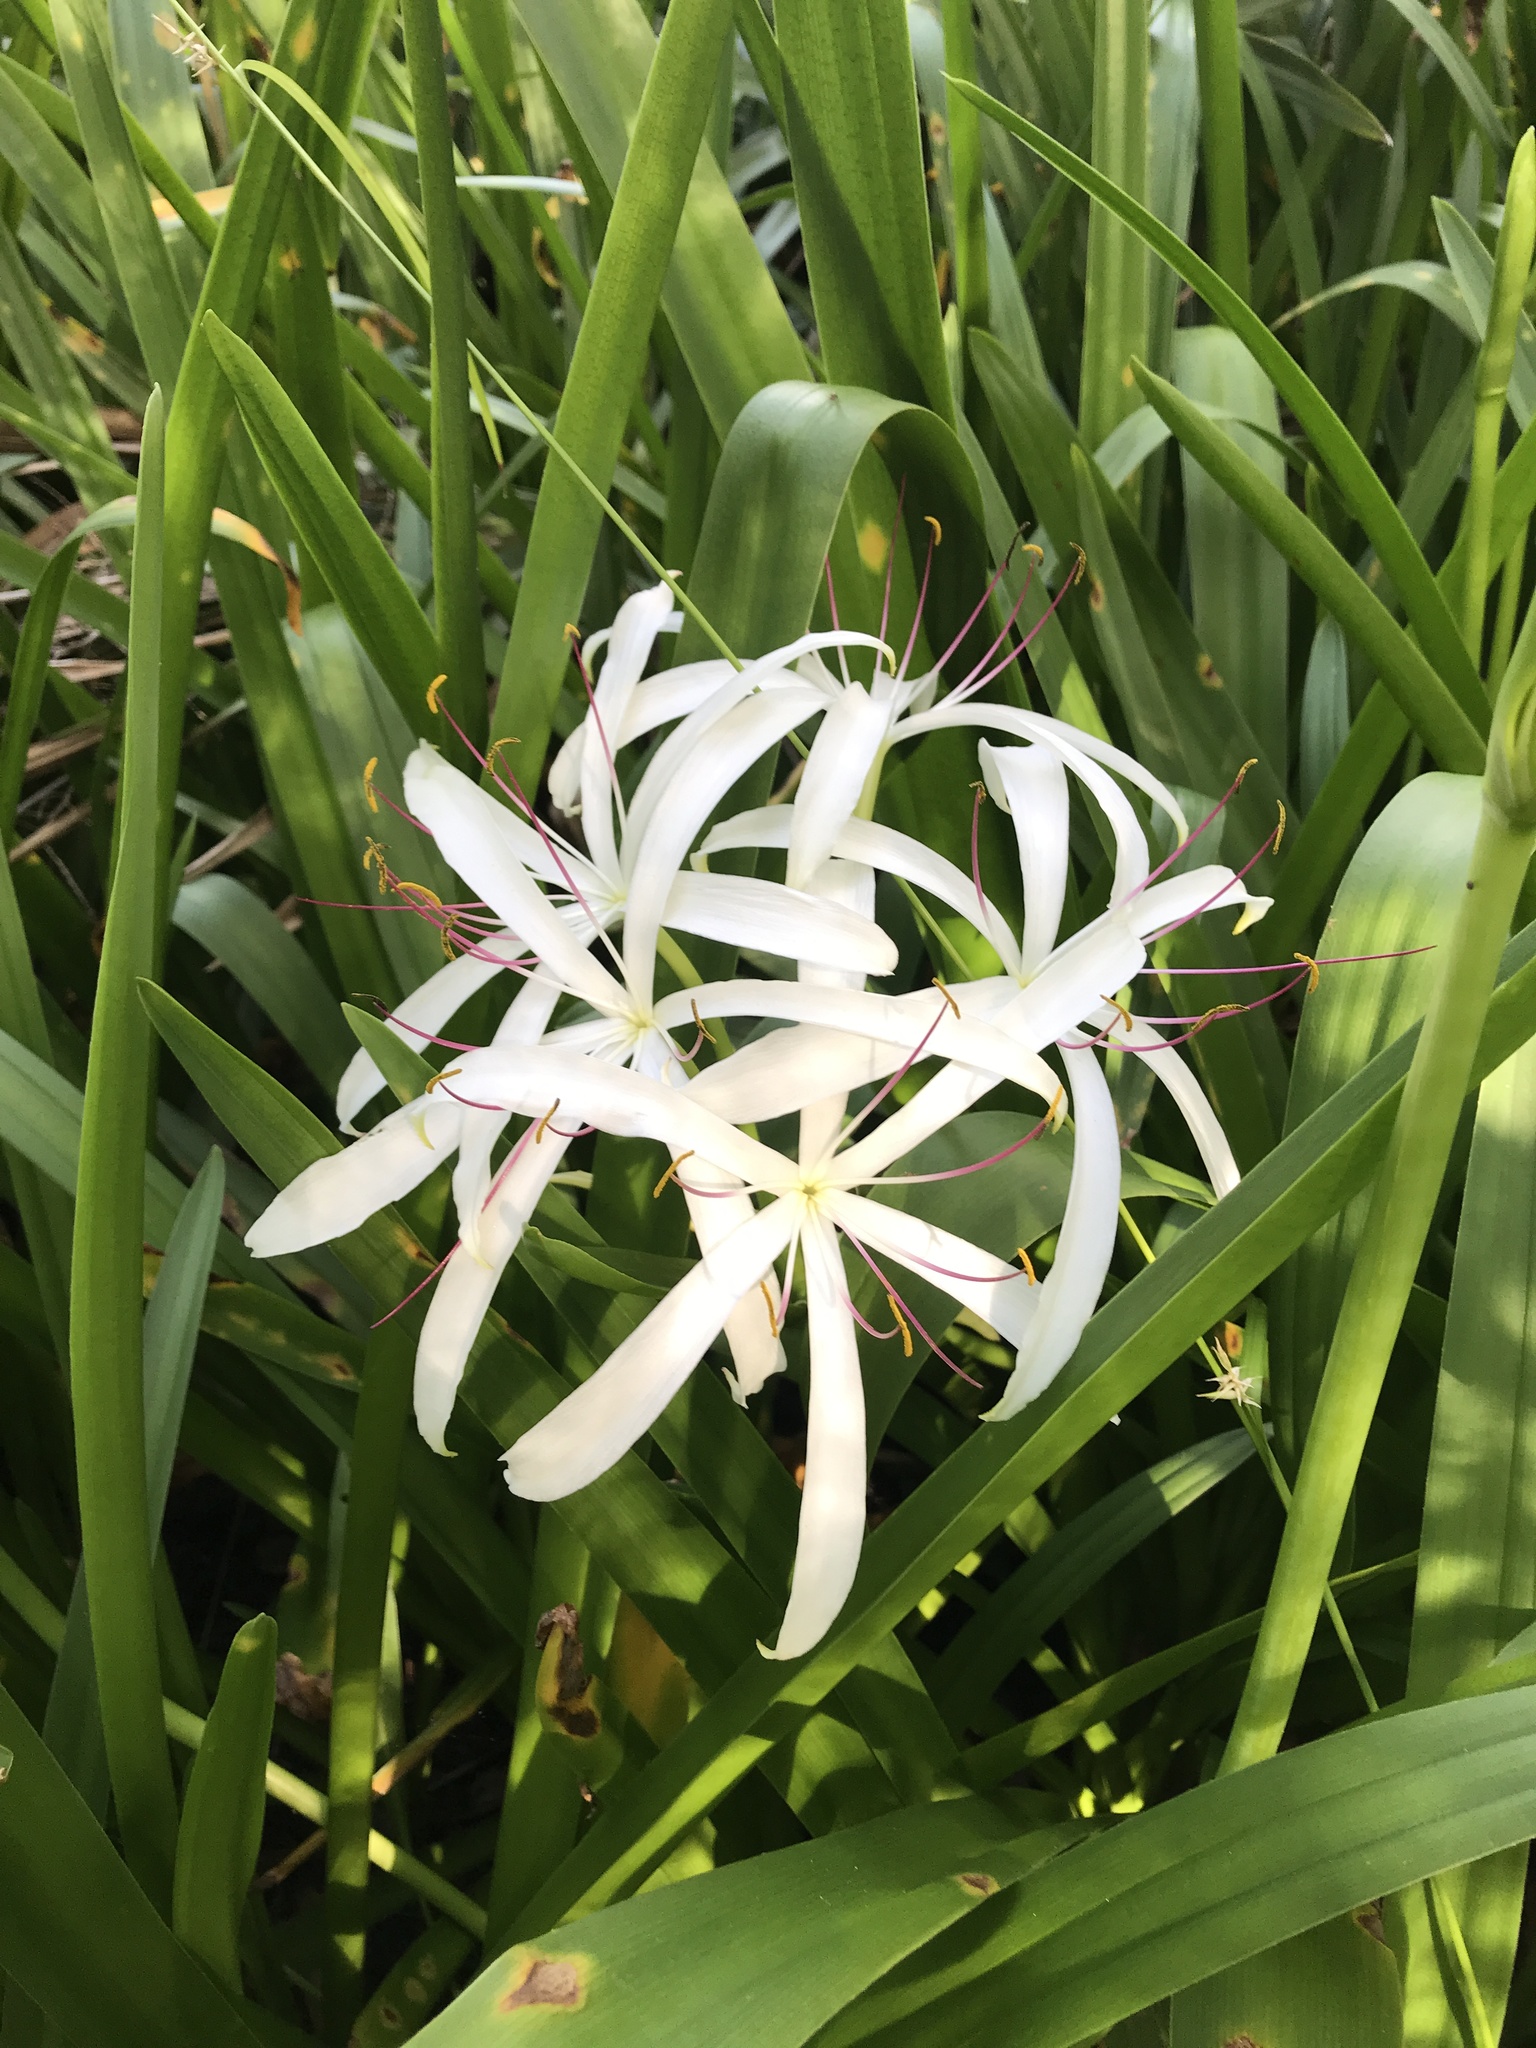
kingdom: Plantae
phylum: Tracheophyta
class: Liliopsida
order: Asparagales
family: Amaryllidaceae
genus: Crinum
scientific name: Crinum americanum
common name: Florida swamp-lily
